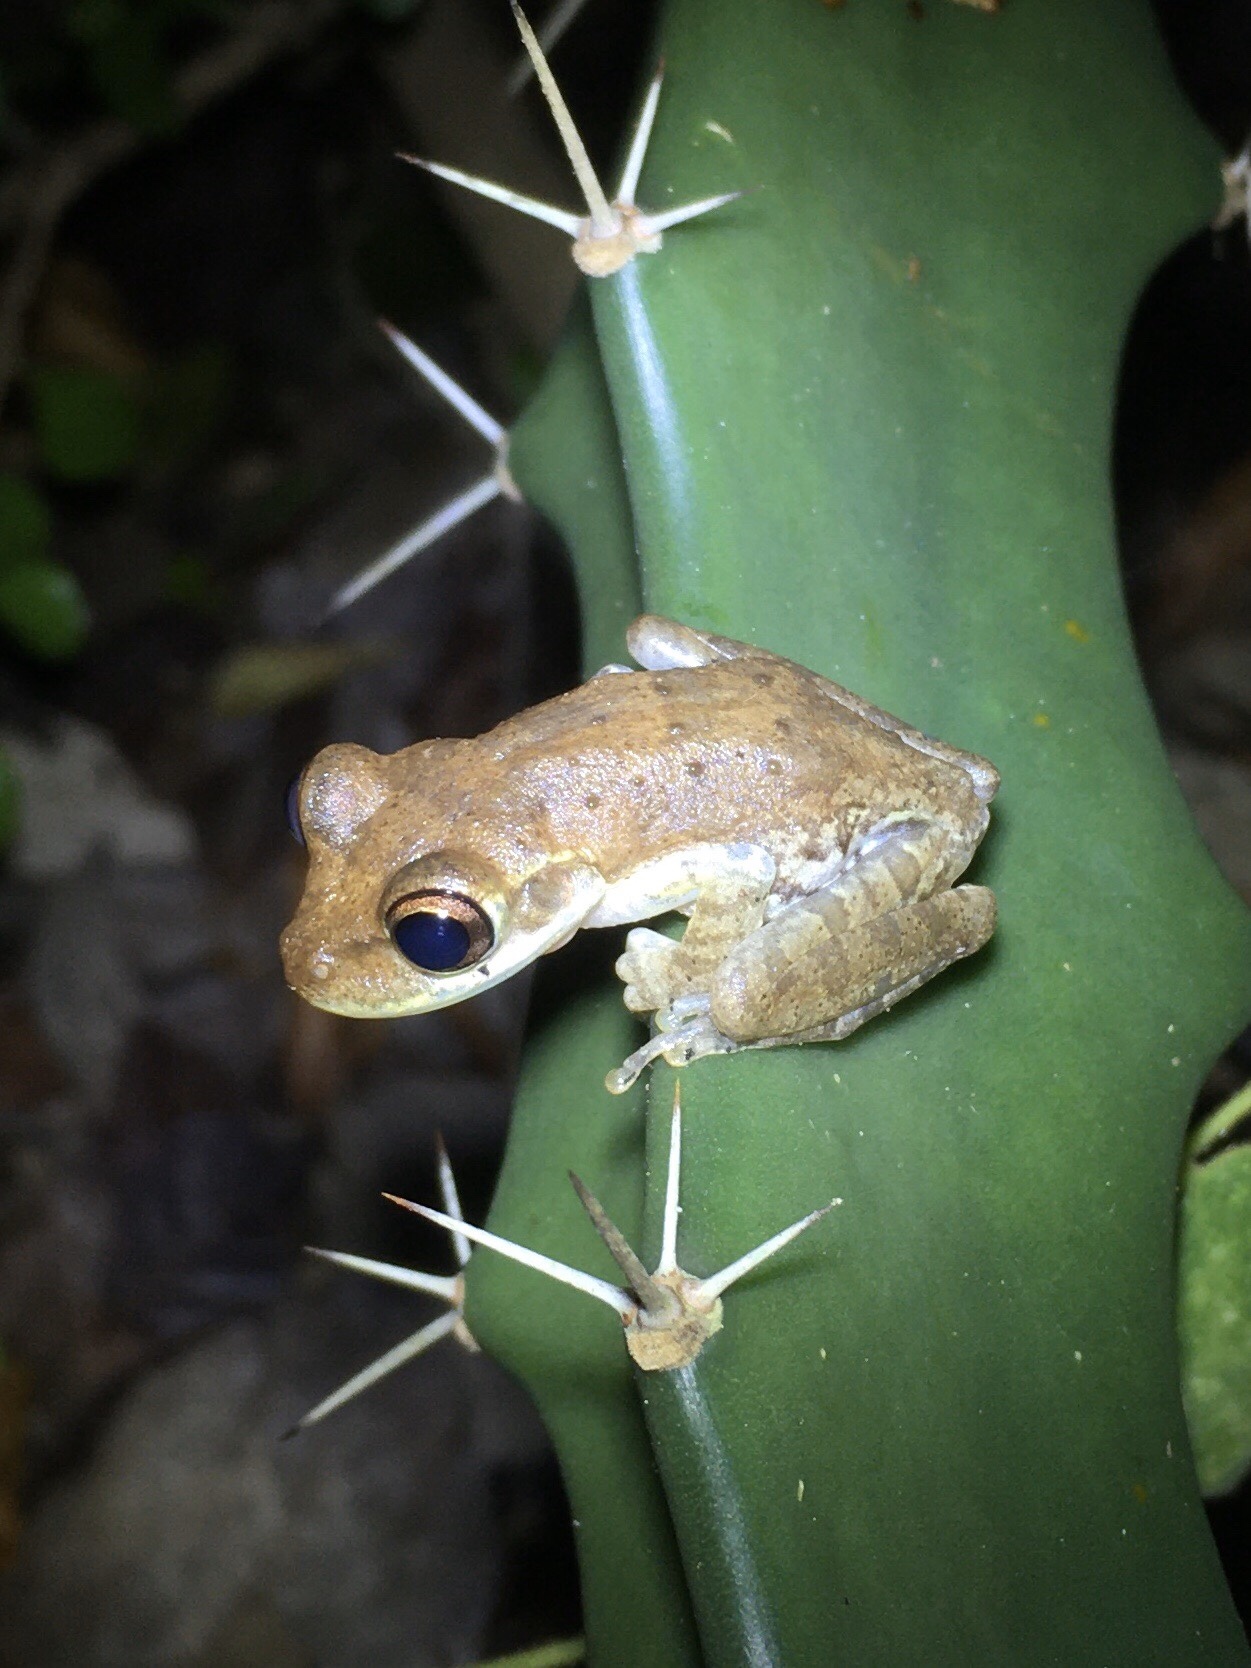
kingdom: Animalia
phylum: Chordata
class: Amphibia
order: Anura
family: Hylidae
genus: Osteopilus
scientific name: Osteopilus septentrionalis
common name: Cuban treefrog
